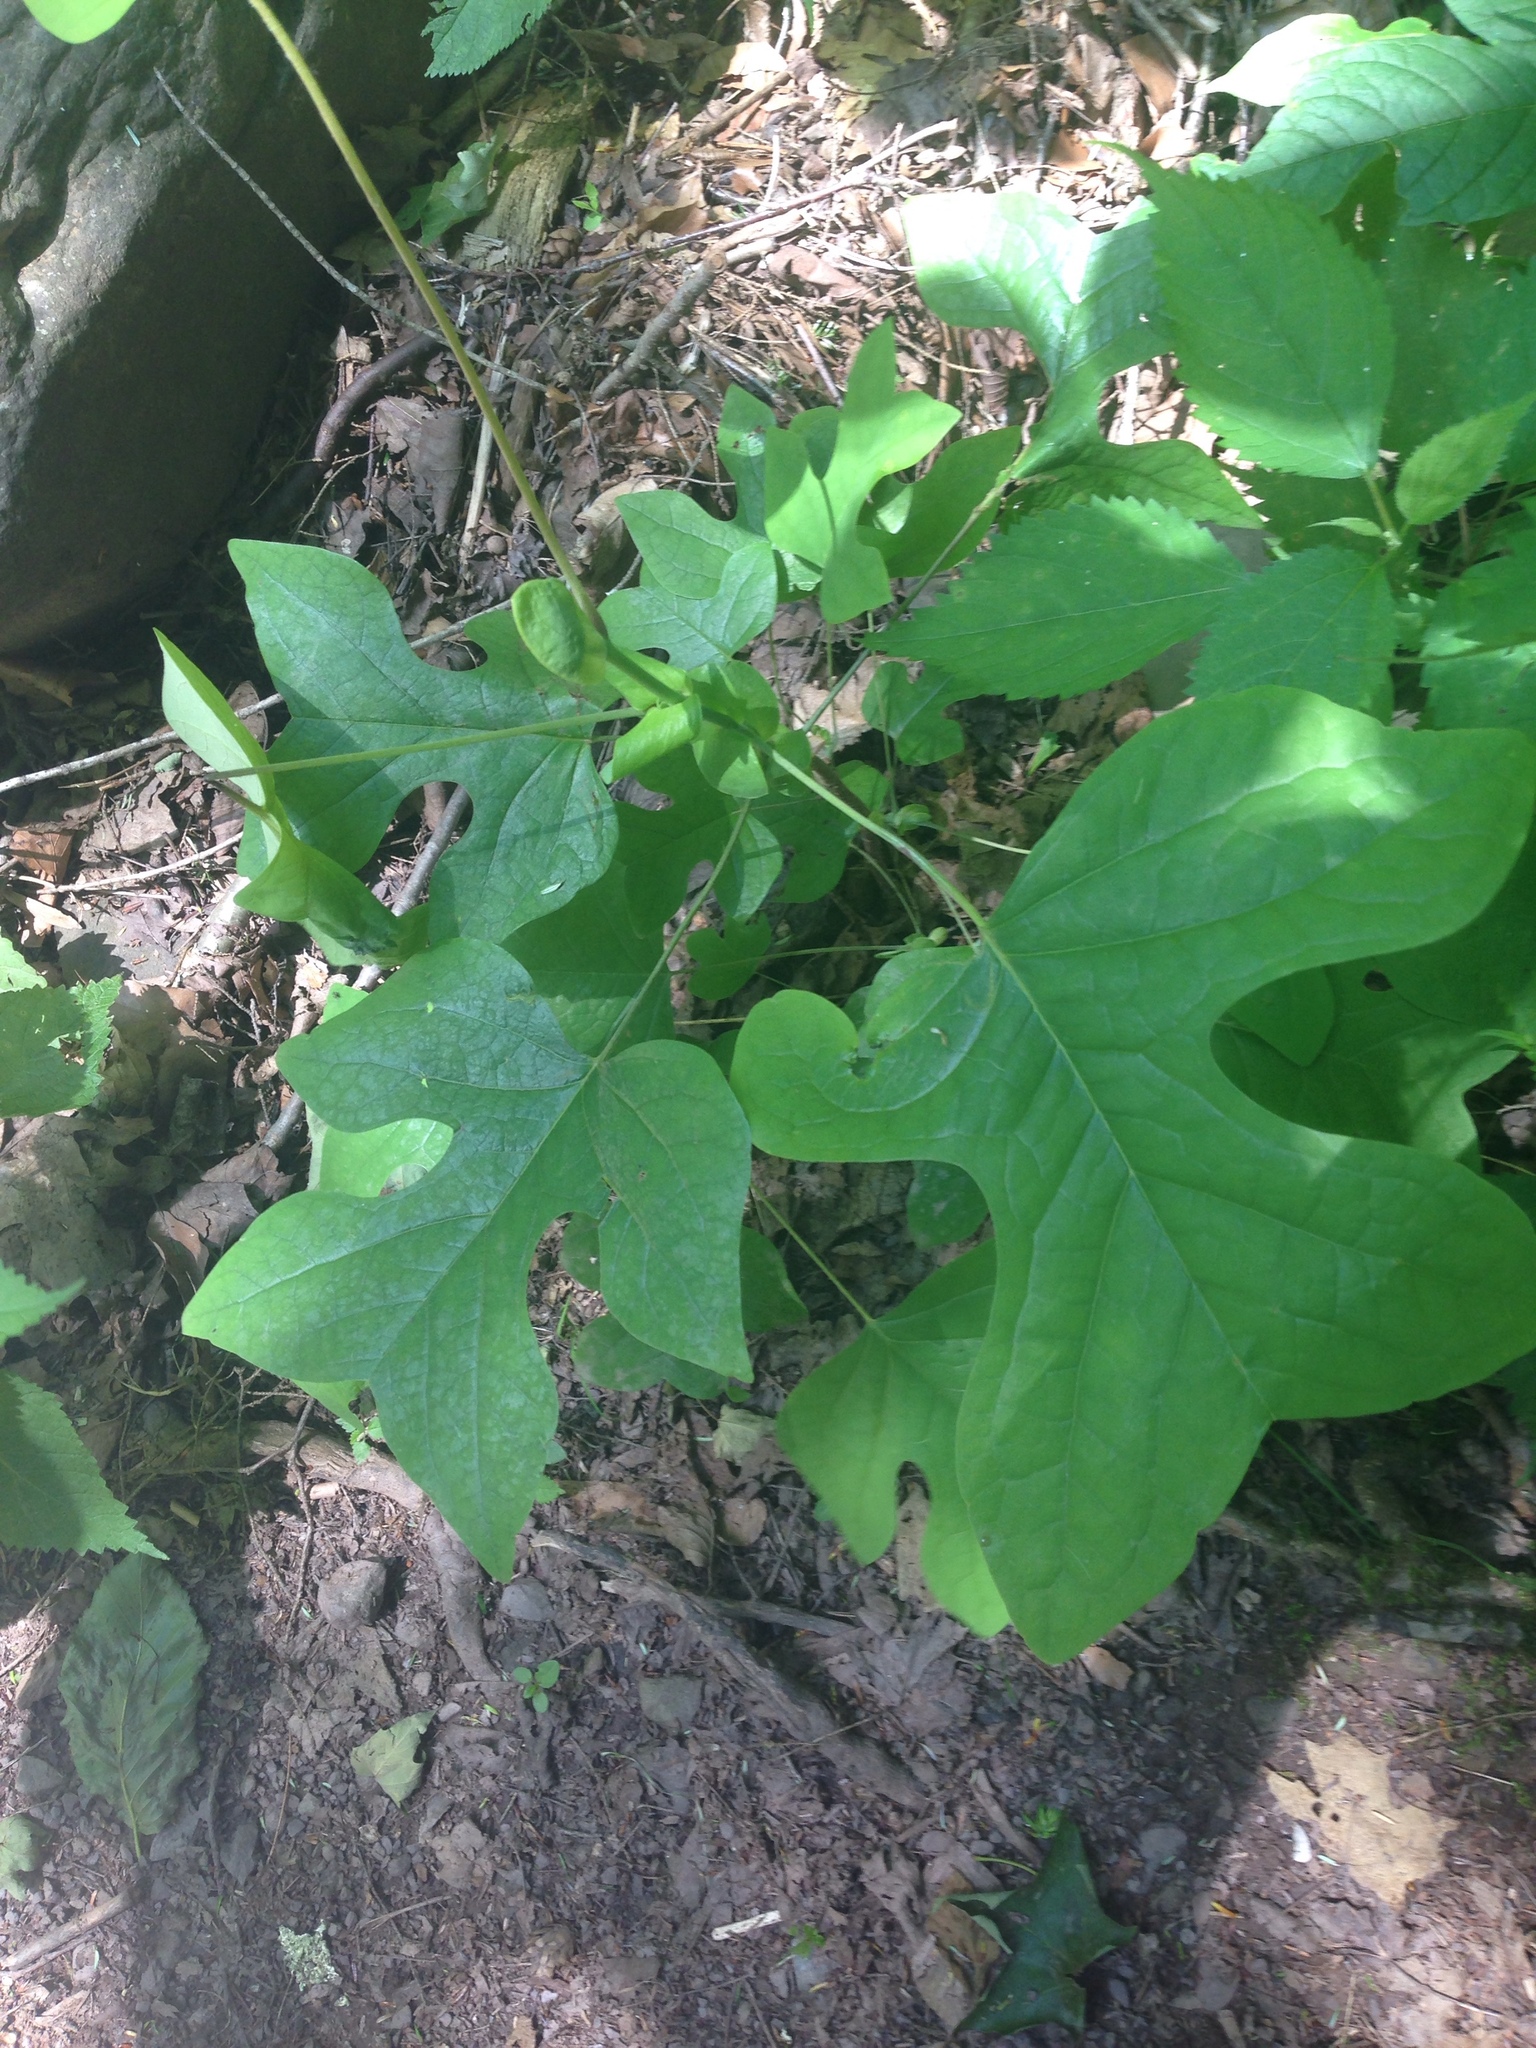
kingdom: Plantae
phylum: Tracheophyta
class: Magnoliopsida
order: Magnoliales
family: Magnoliaceae
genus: Liriodendron
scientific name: Liriodendron tulipifera
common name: Tulip tree
